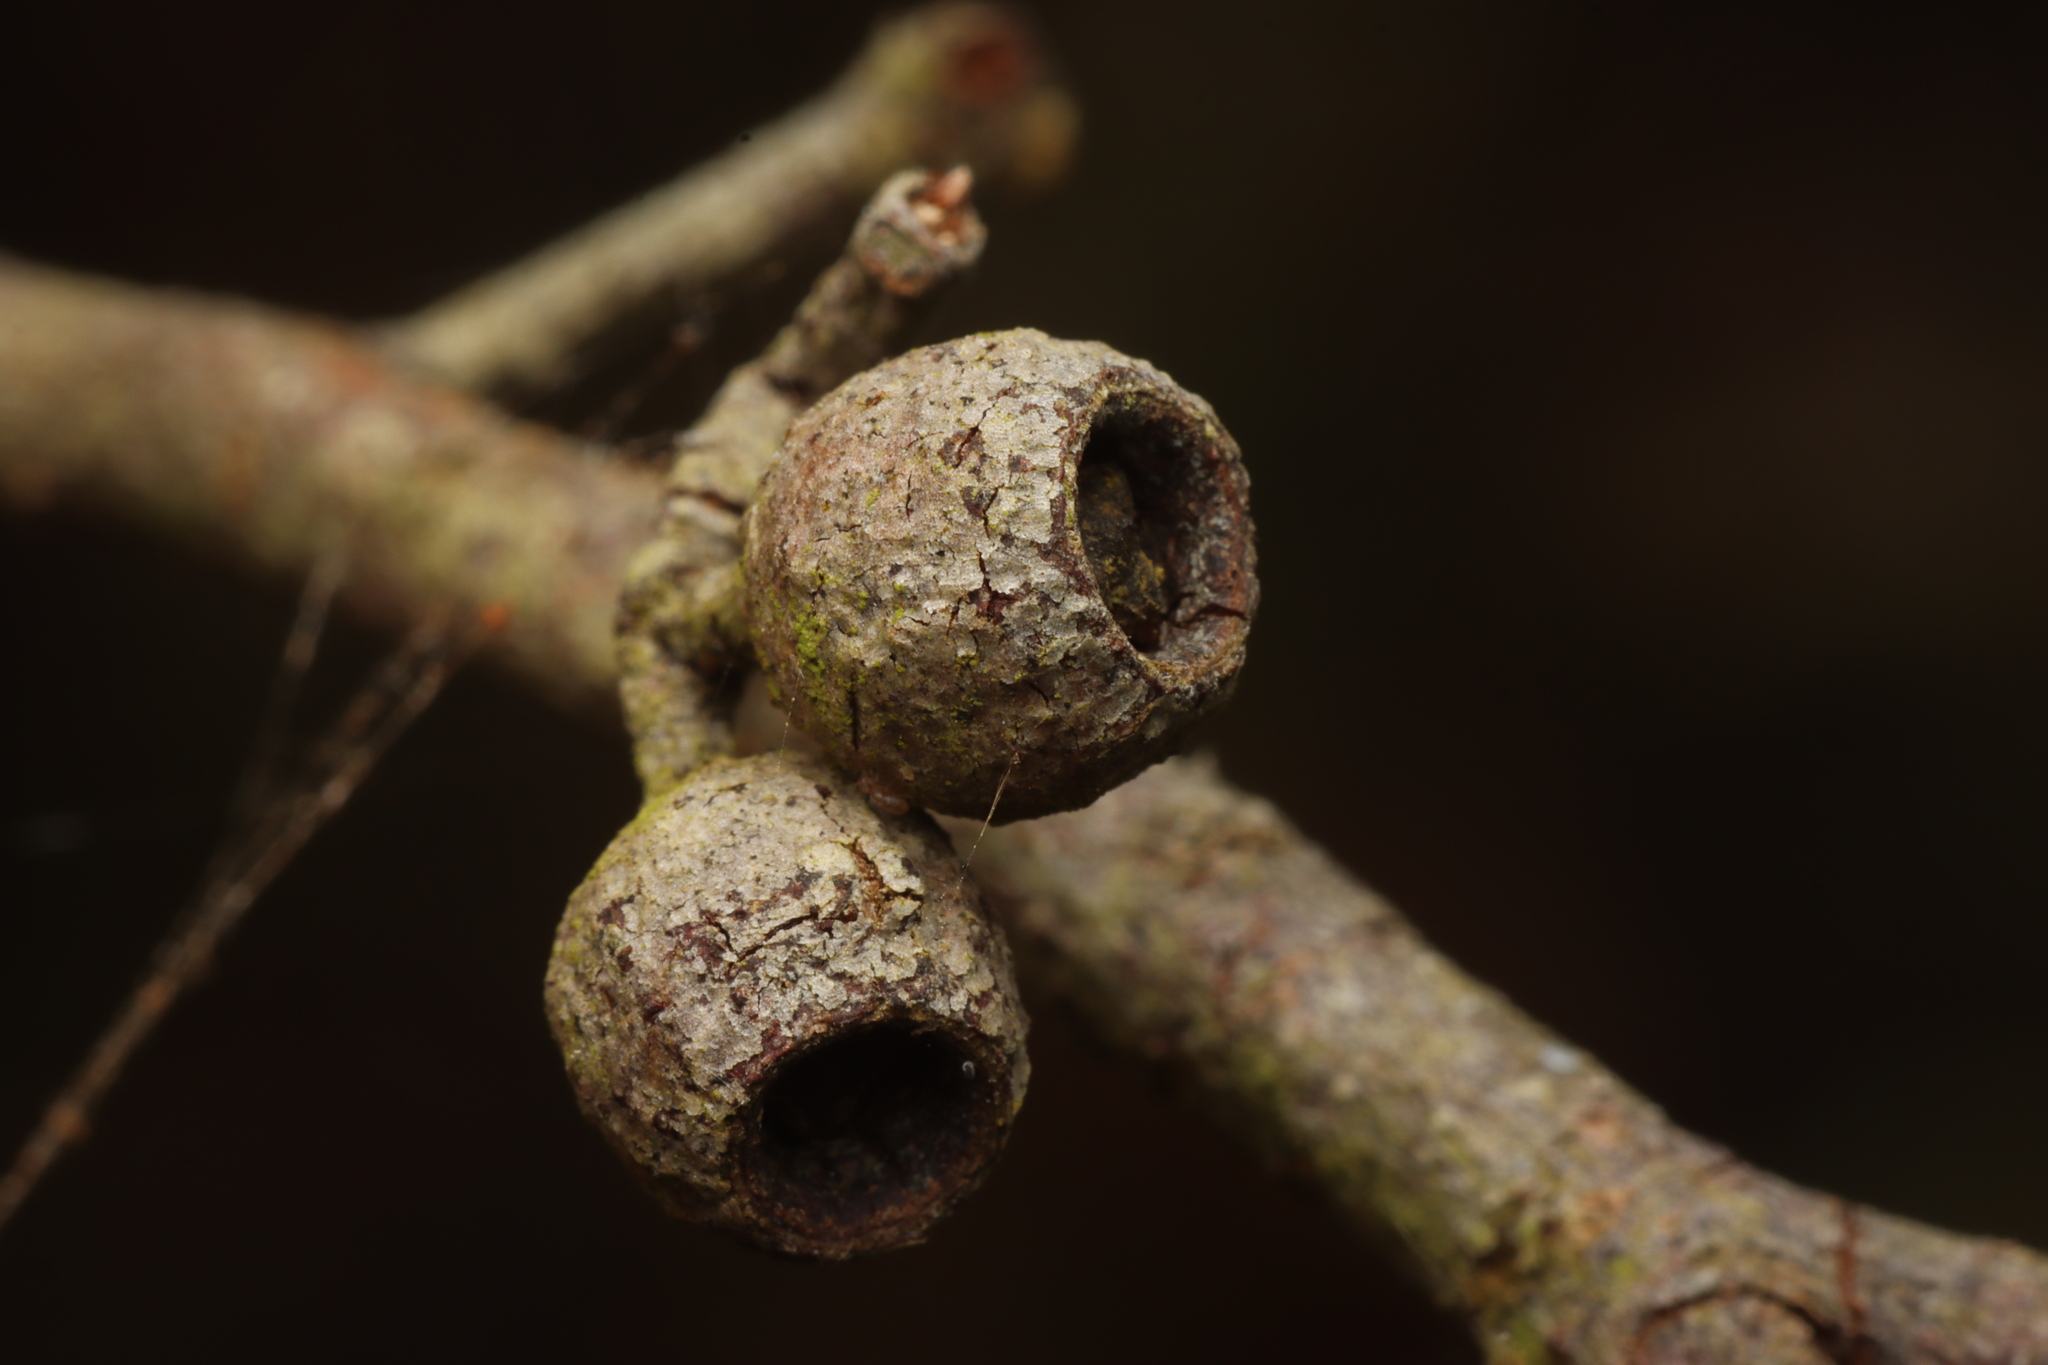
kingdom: Plantae
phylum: Tracheophyta
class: Magnoliopsida
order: Myrtales
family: Myrtaceae
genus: Eucalyptus
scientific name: Eucalyptus obliqua
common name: Messmate stringybark
